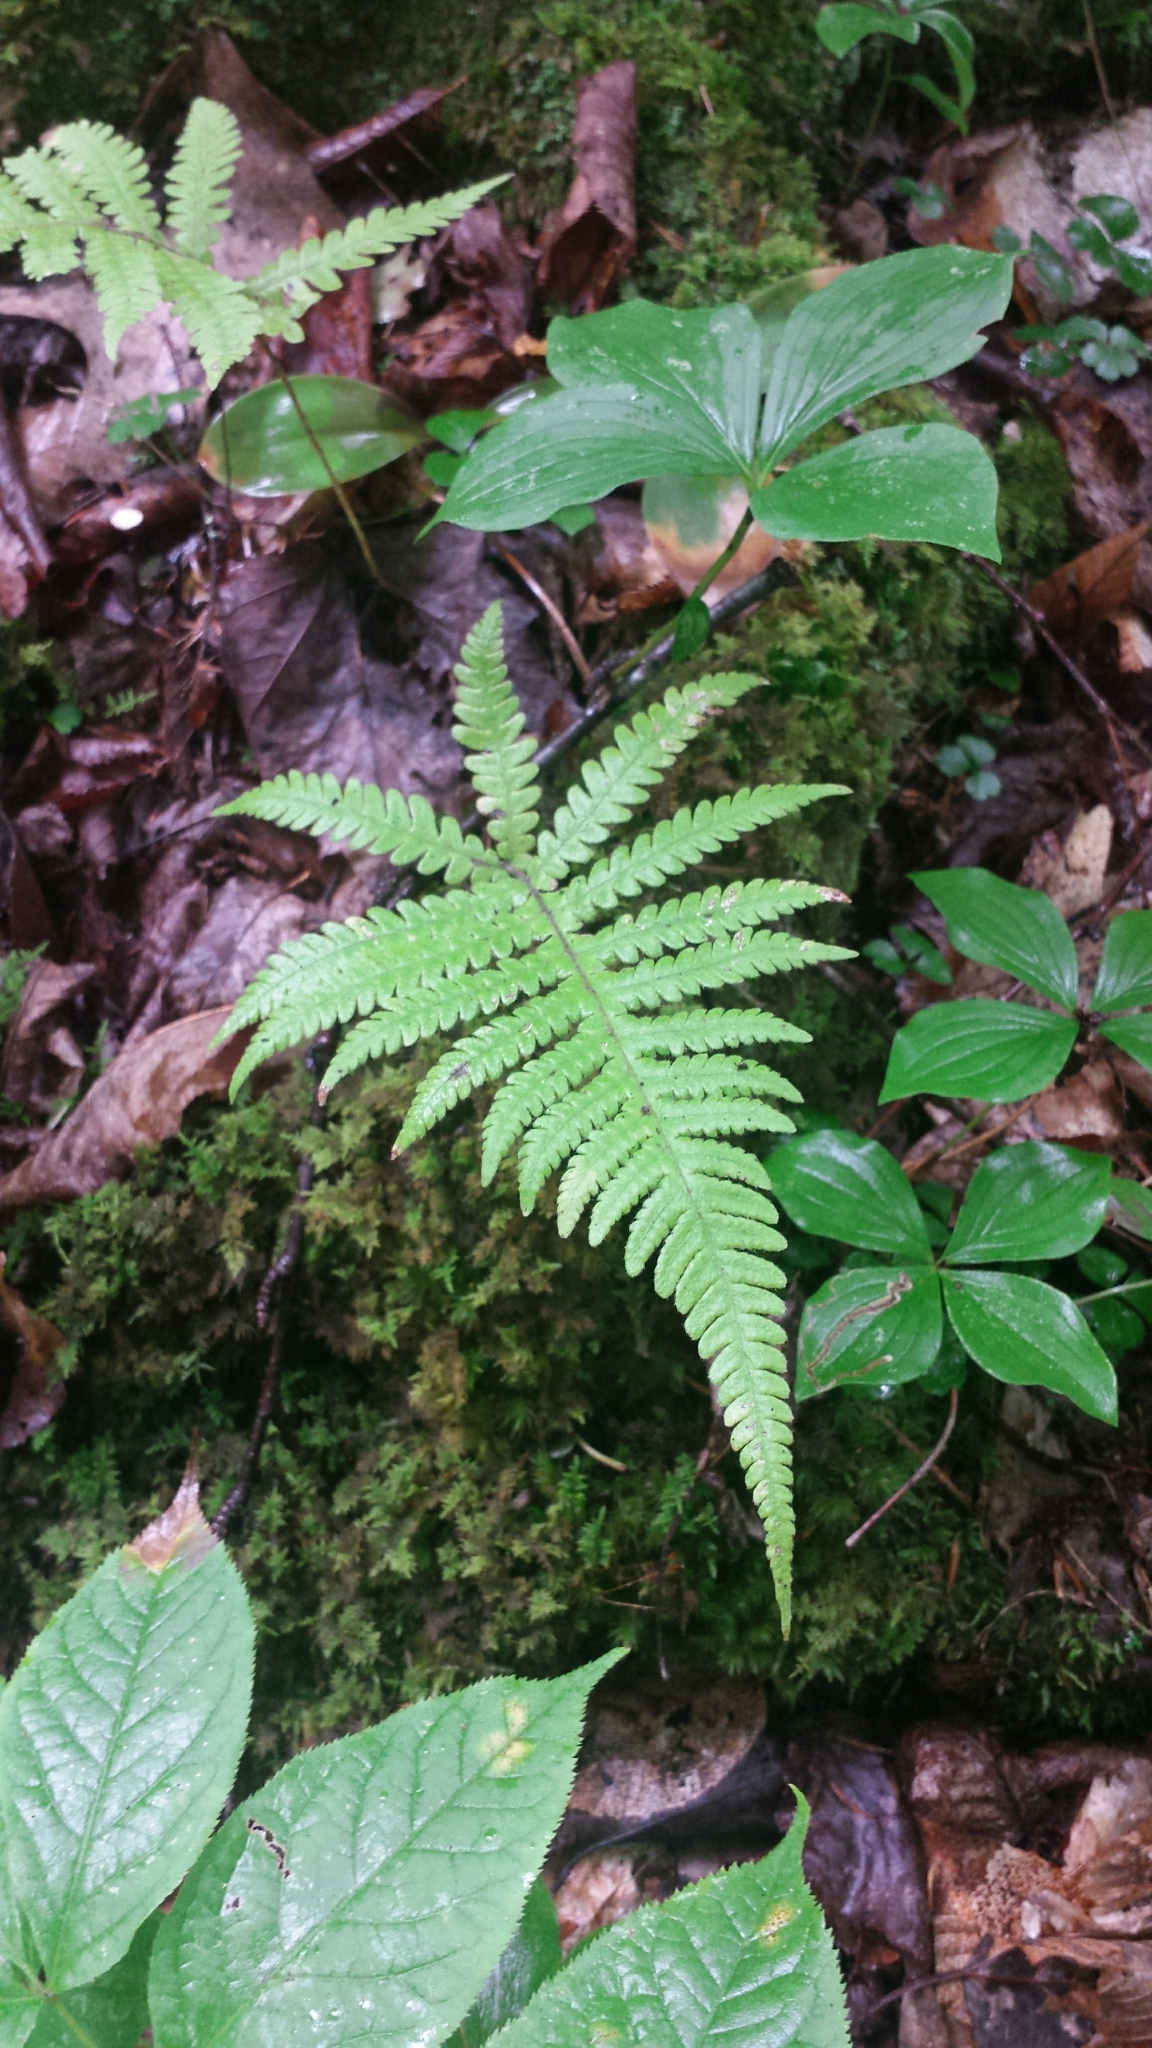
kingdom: Plantae
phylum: Tracheophyta
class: Polypodiopsida
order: Polypodiales
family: Thelypteridaceae
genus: Phegopteris
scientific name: Phegopteris connectilis
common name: Beech fern
